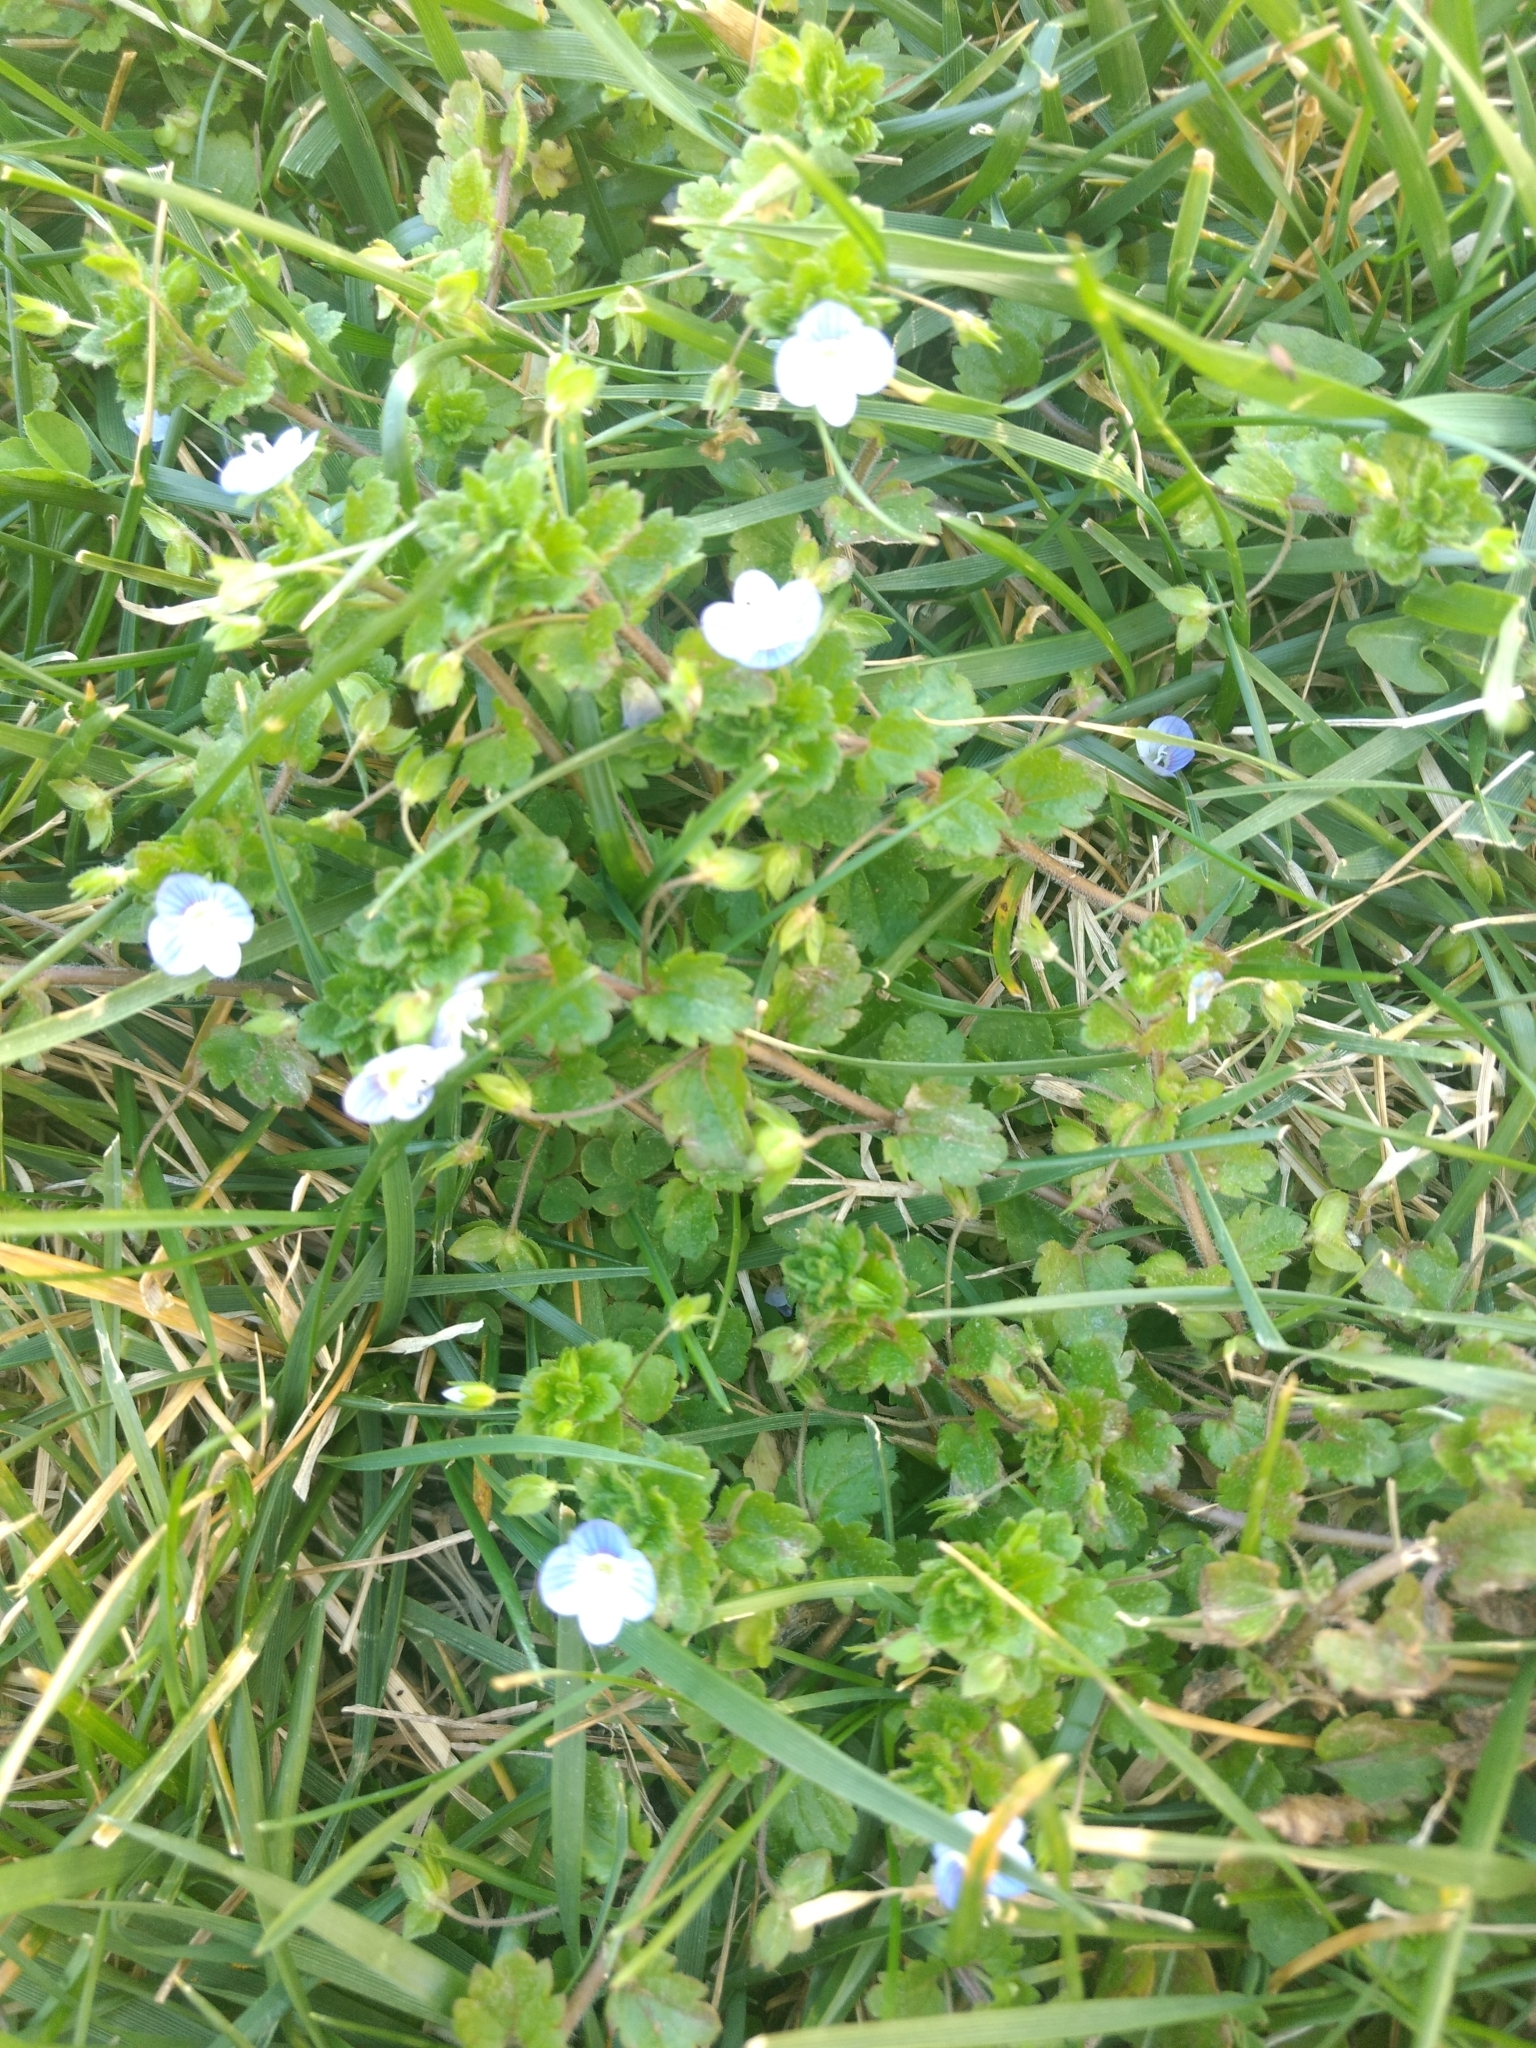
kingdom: Plantae
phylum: Tracheophyta
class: Magnoliopsida
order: Lamiales
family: Plantaginaceae
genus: Veronica
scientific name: Veronica persica
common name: Common field-speedwell
